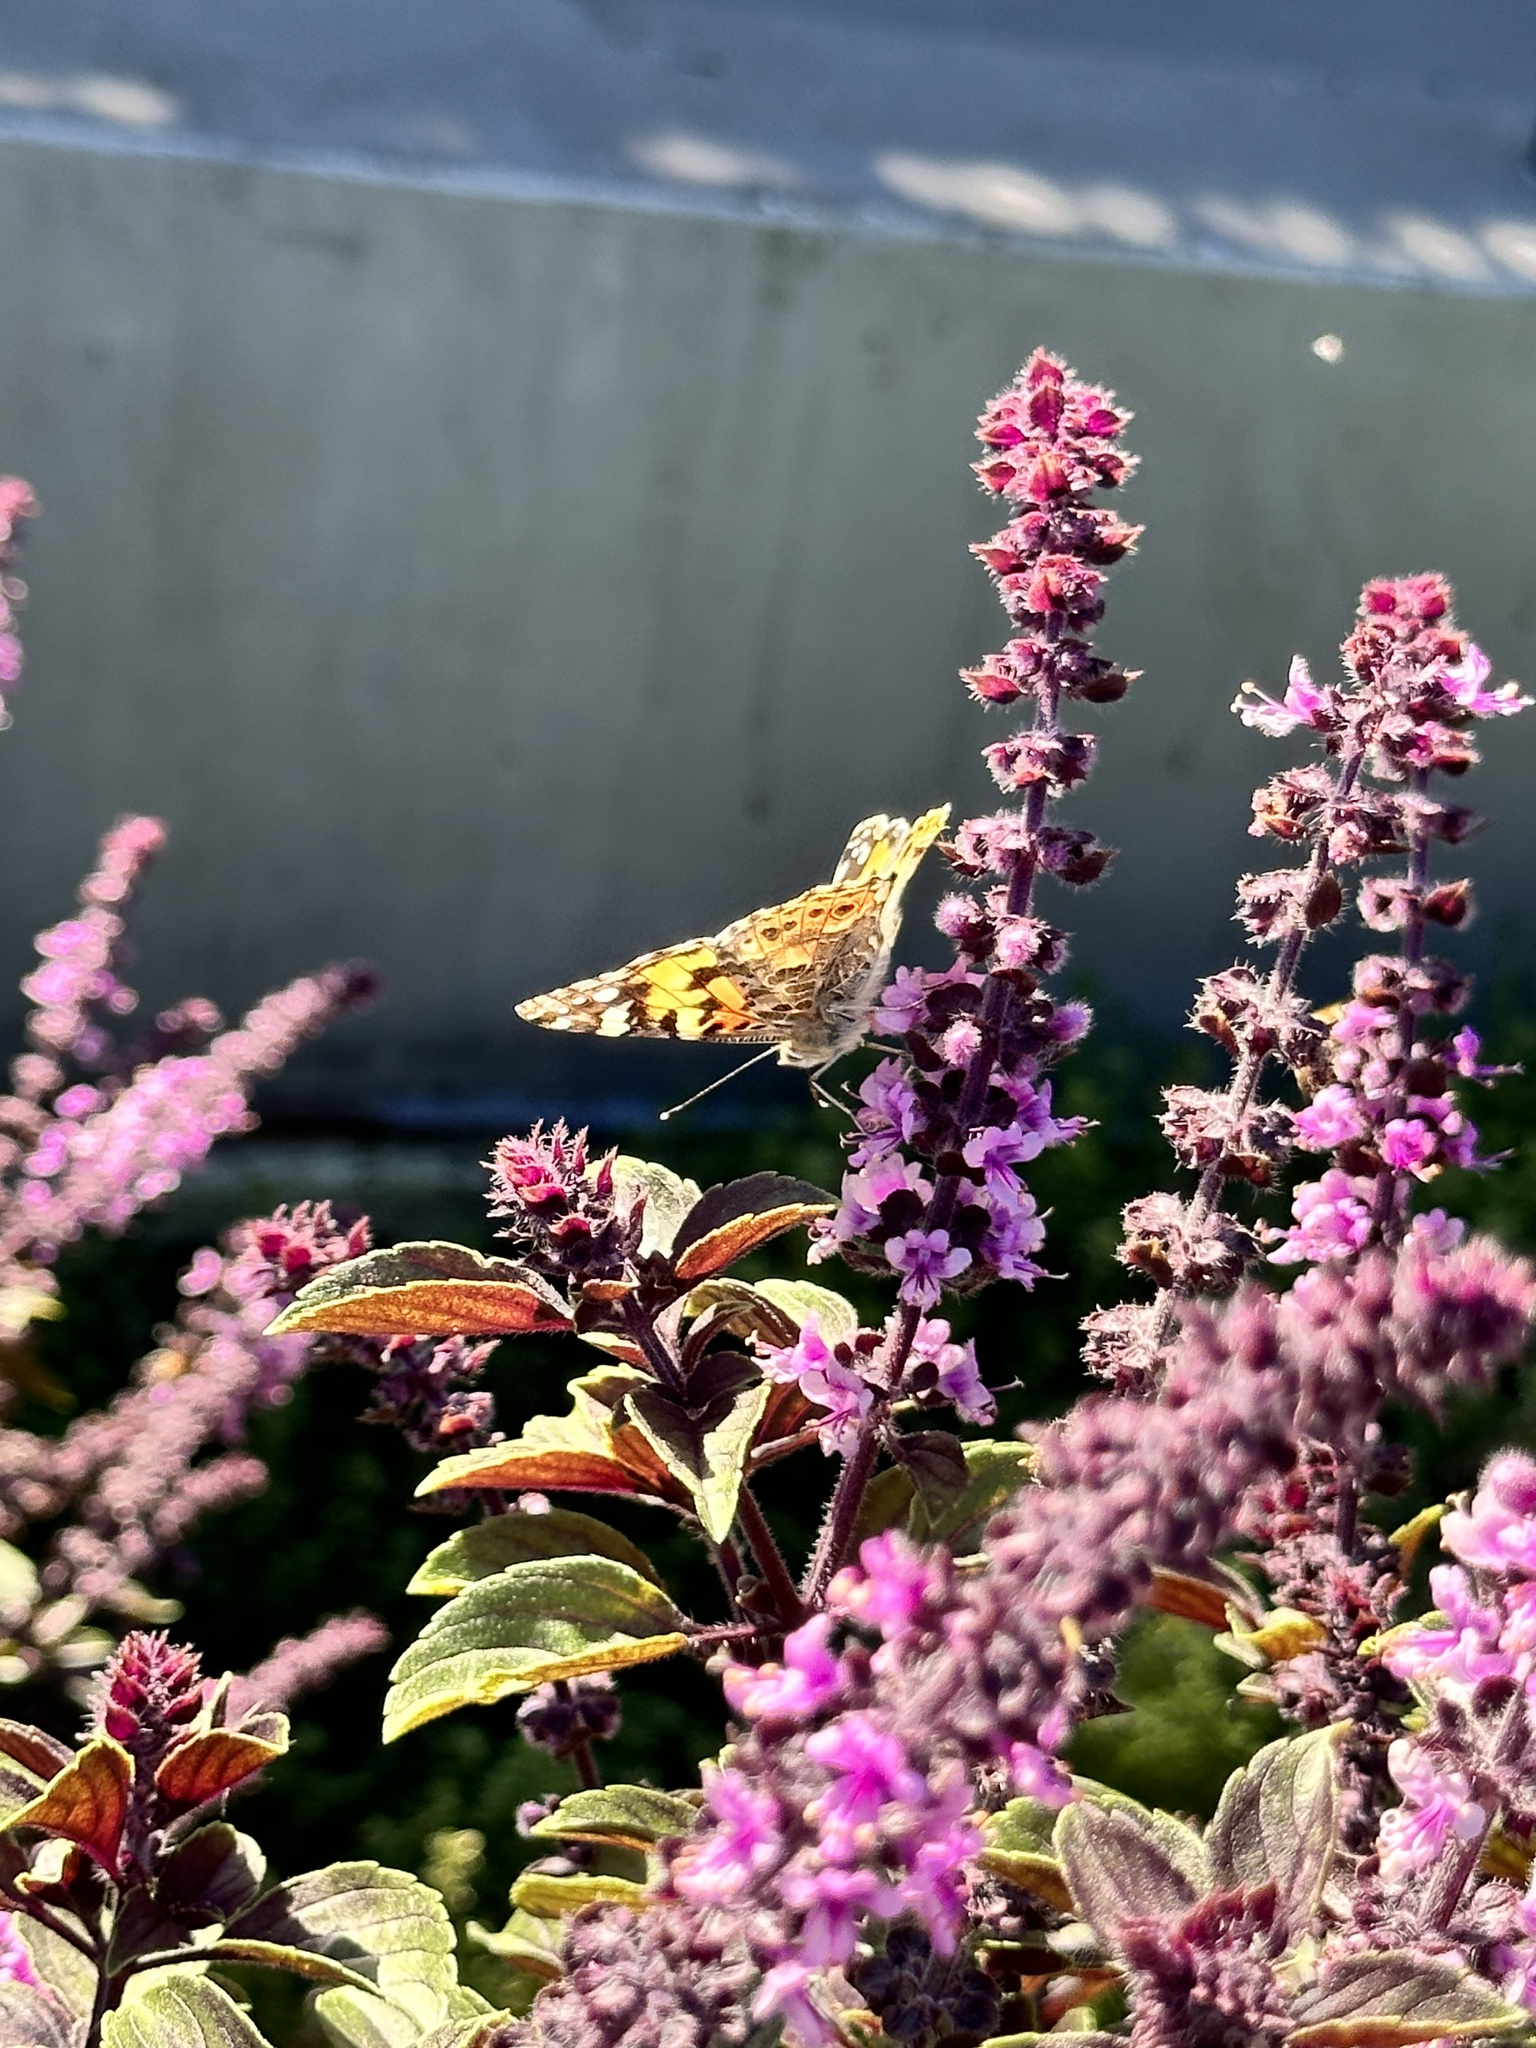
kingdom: Animalia
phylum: Arthropoda
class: Insecta
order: Lepidoptera
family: Nymphalidae
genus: Vanessa
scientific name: Vanessa cardui
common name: Painted lady
